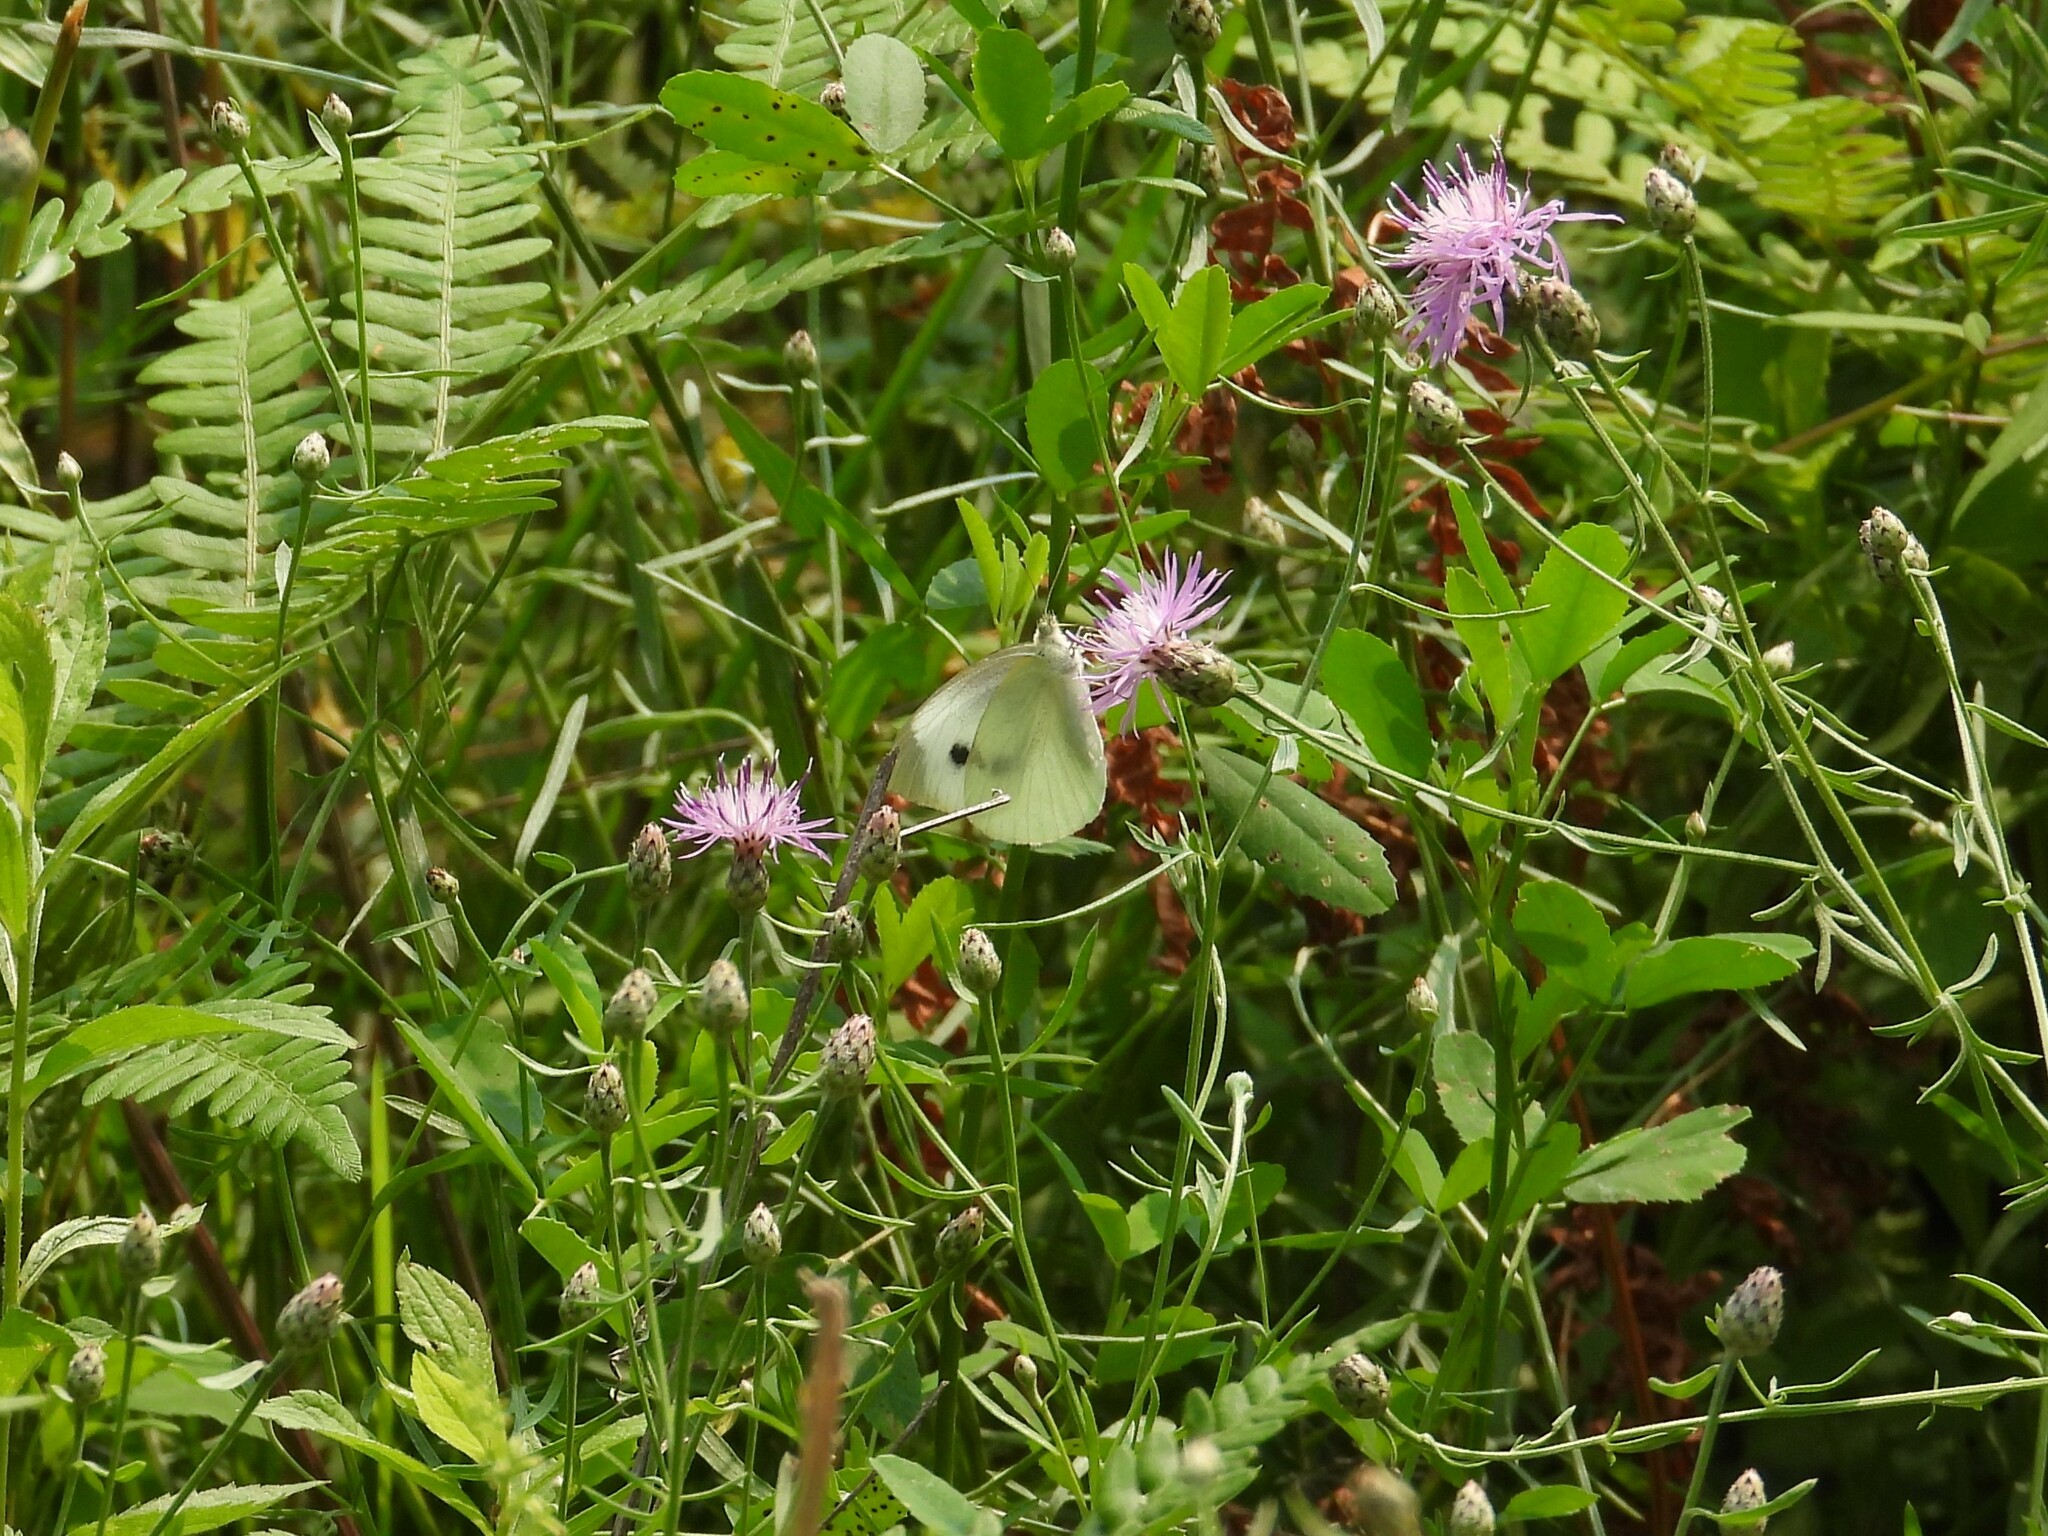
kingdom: Animalia
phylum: Arthropoda
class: Insecta
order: Lepidoptera
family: Pieridae
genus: Pieris
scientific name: Pieris rapae
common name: Small white
